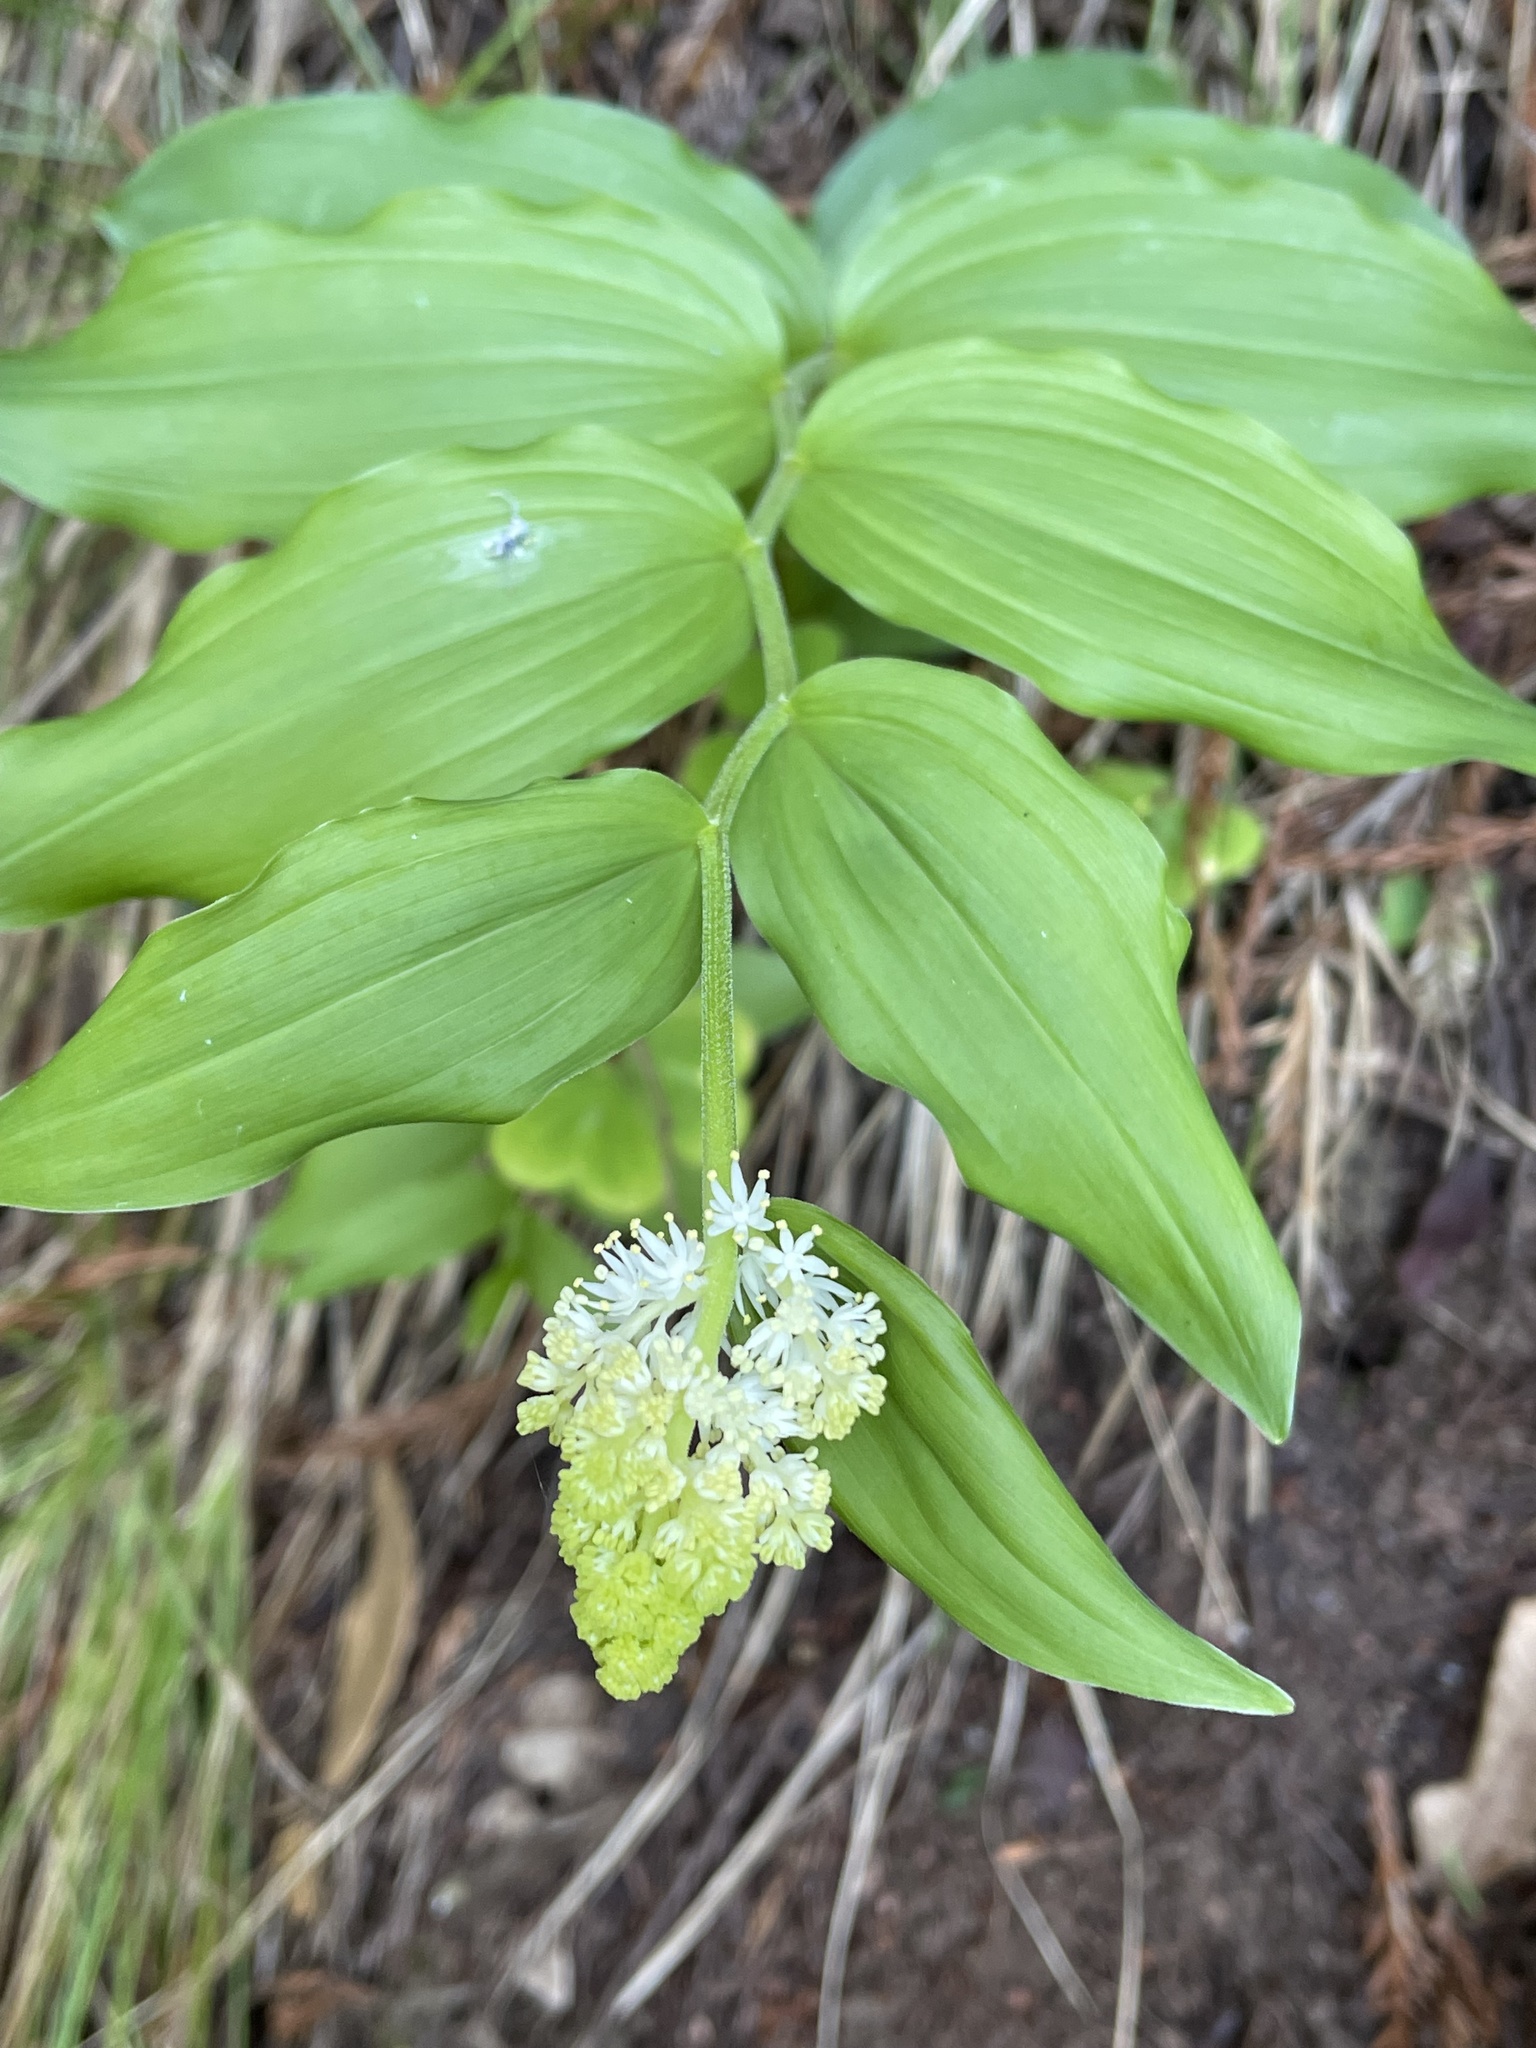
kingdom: Plantae
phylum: Tracheophyta
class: Liliopsida
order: Asparagales
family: Asparagaceae
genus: Maianthemum
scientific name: Maianthemum racemosum
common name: False spikenard
